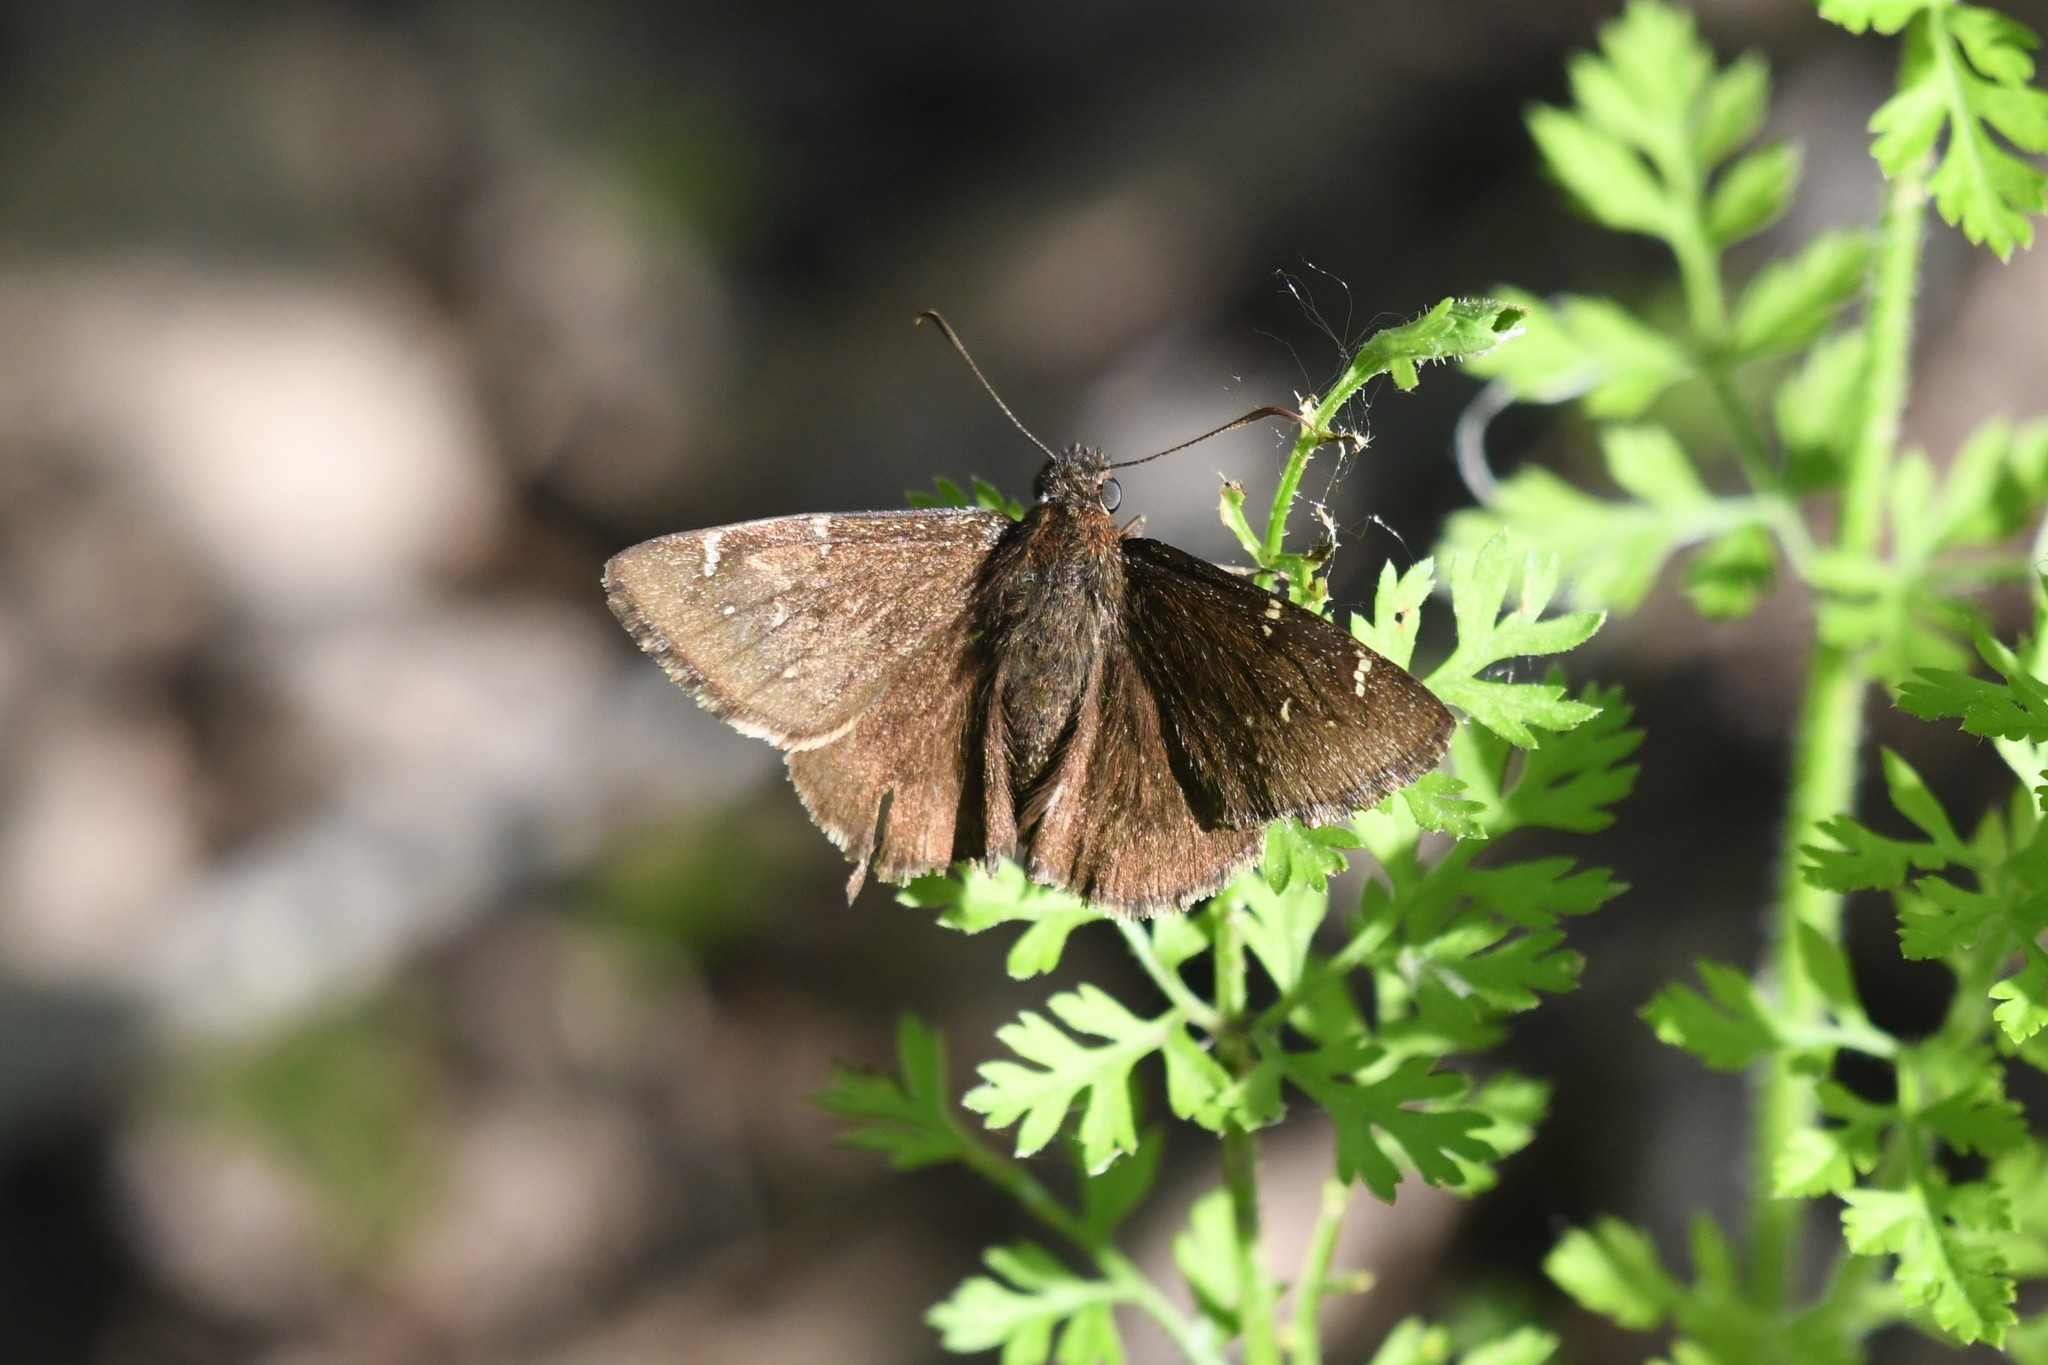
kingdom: Animalia
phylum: Arthropoda
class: Insecta
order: Lepidoptera
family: Hesperiidae
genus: Thorybes
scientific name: Thorybes pylades
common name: Northern cloudywing
